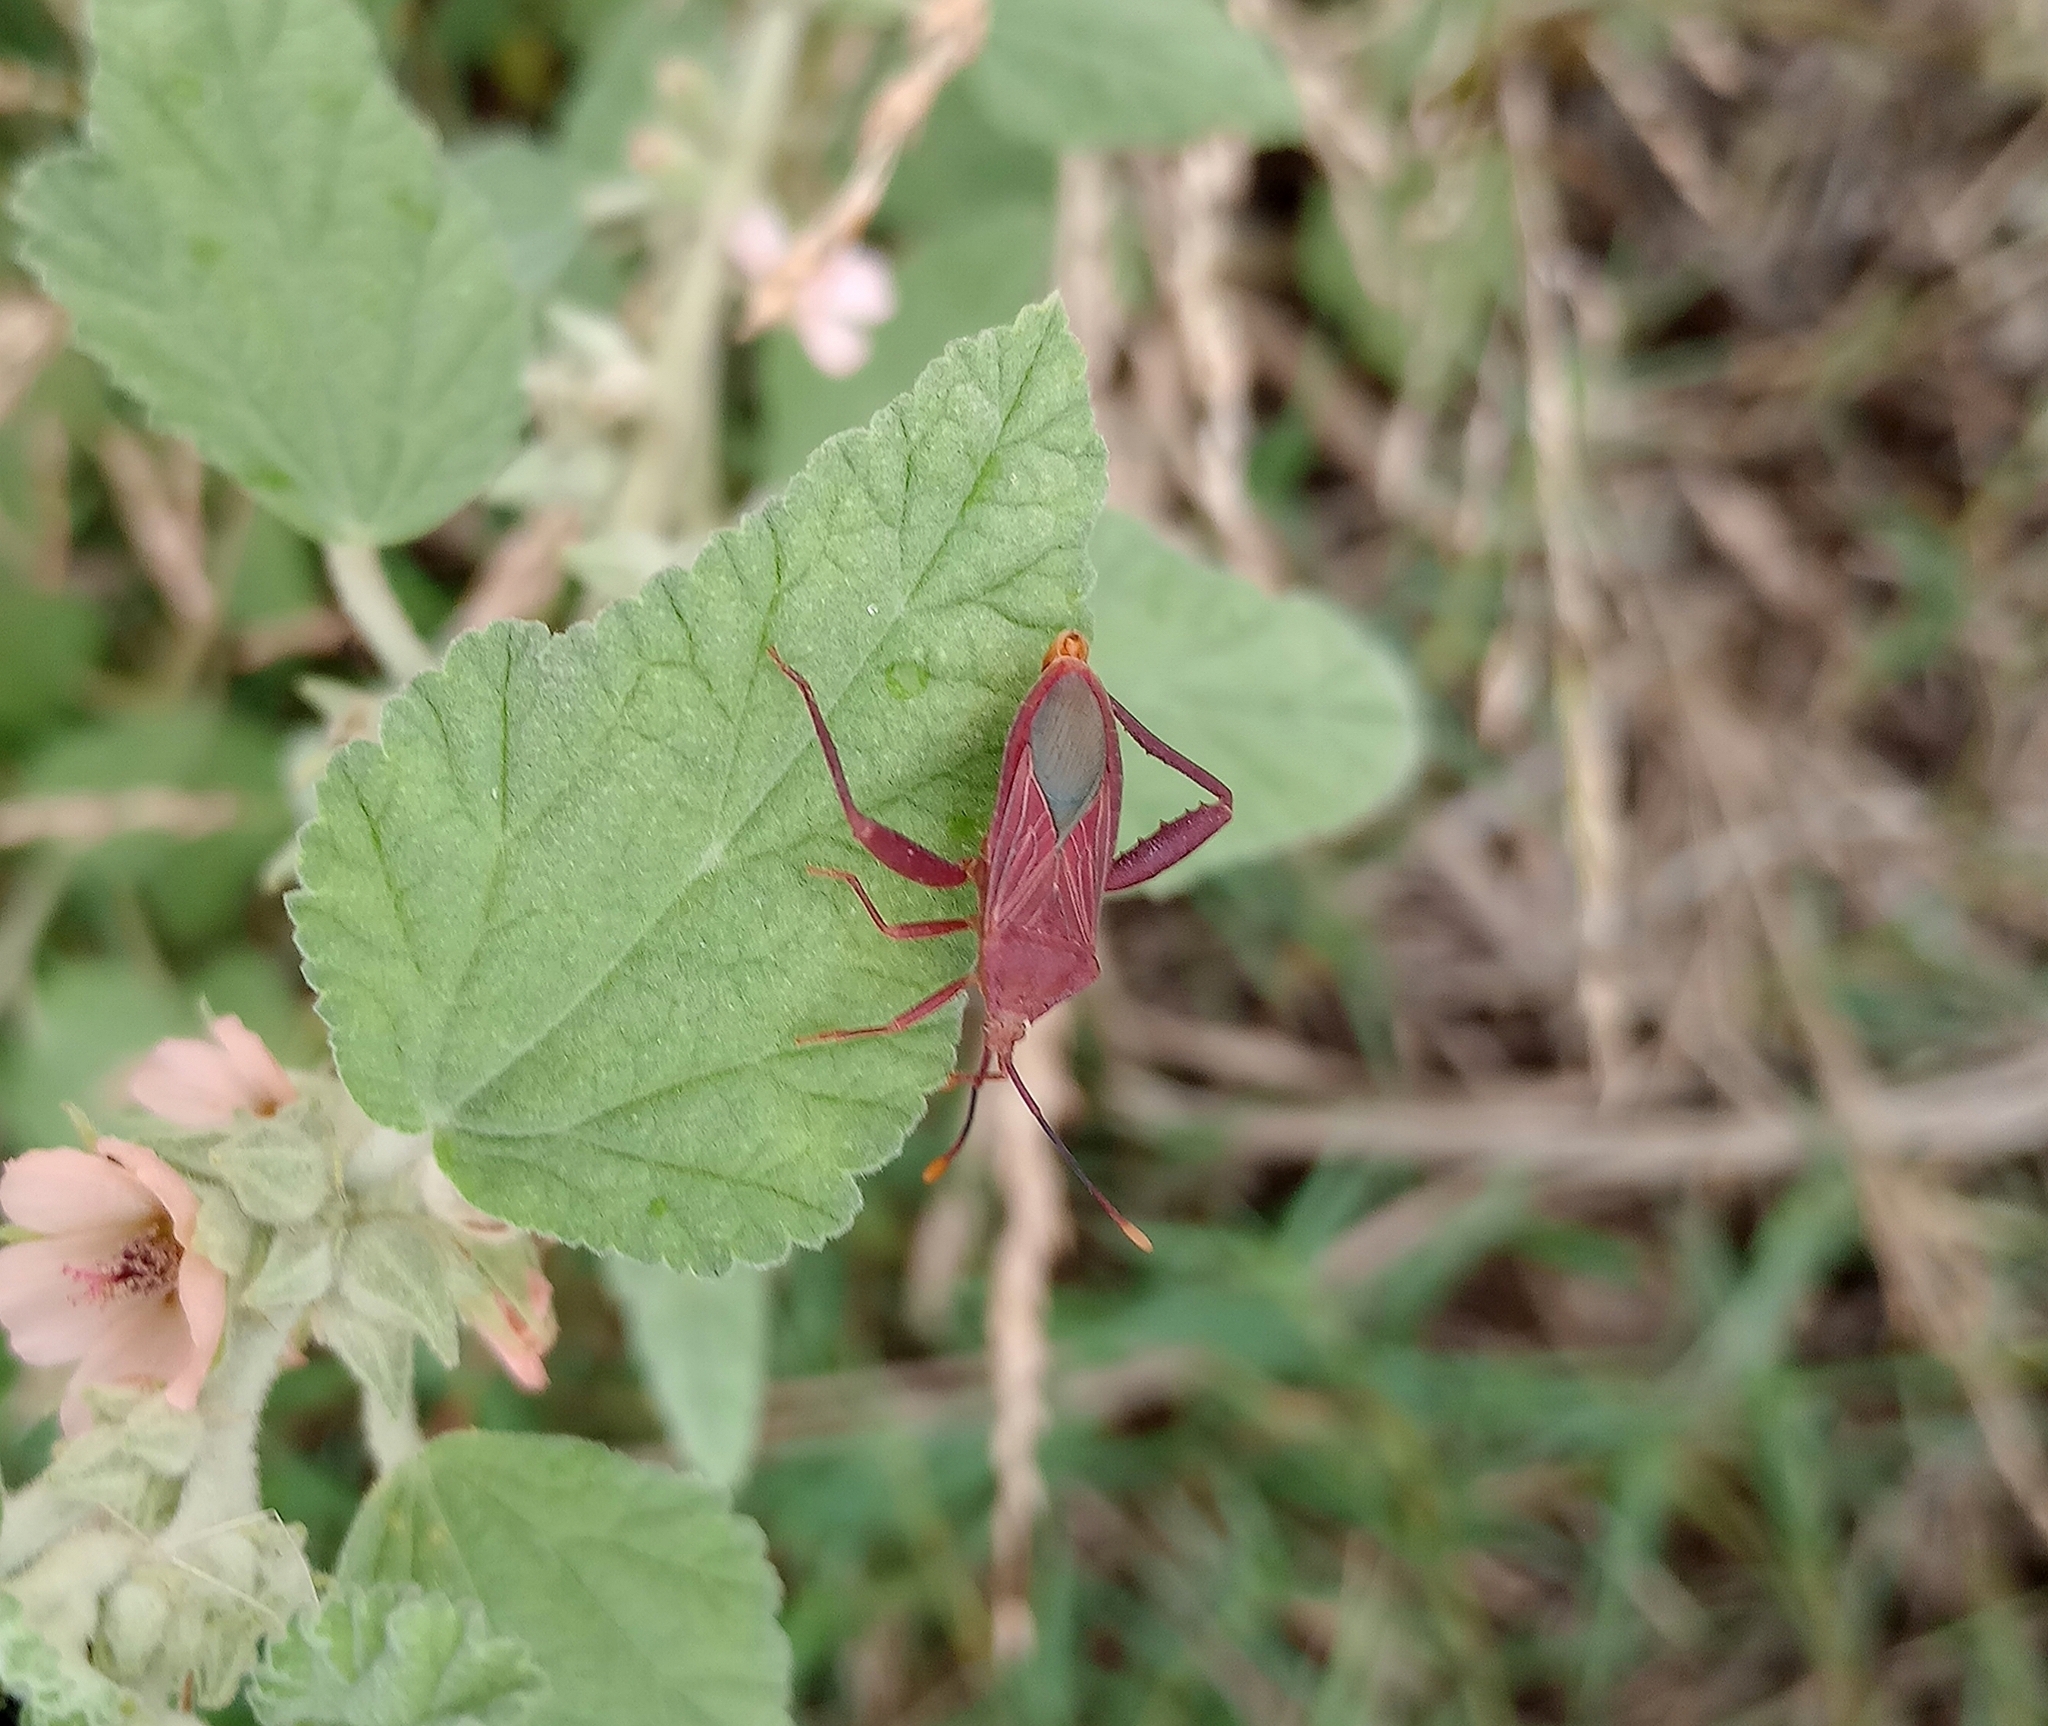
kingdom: Animalia
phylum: Arthropoda
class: Insecta
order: Hemiptera
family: Coreidae
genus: Athaumastus
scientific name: Athaumastus haematicus
